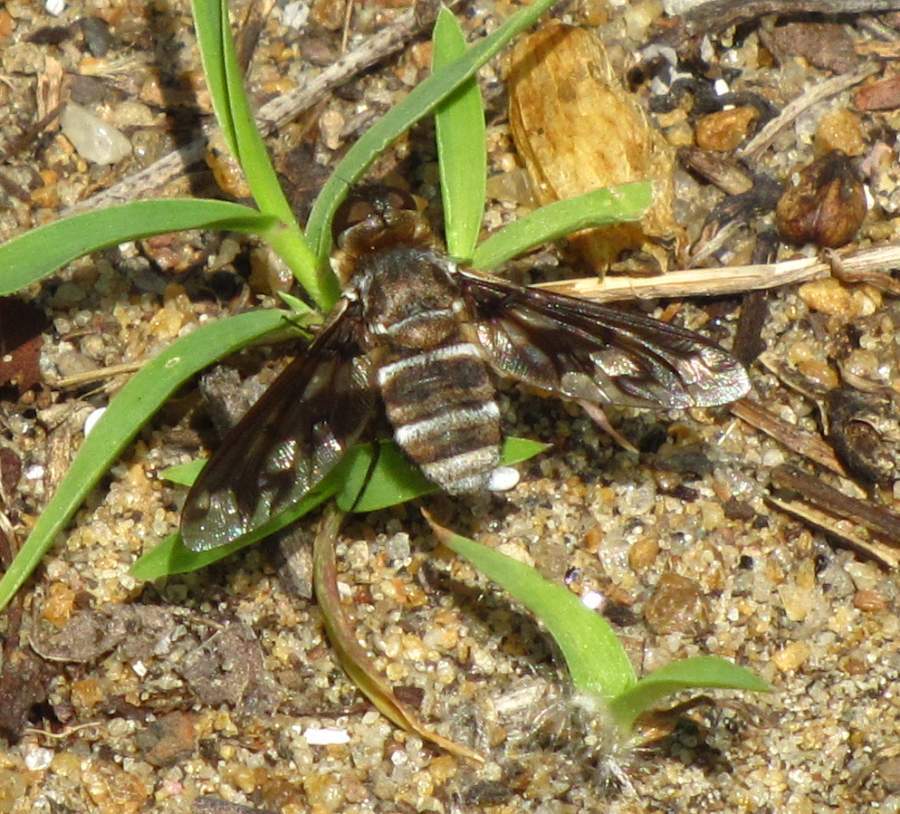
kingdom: Animalia
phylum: Arthropoda
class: Insecta
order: Diptera
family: Bombyliidae
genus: Exoprosopa
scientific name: Exoprosopa fascipennis
